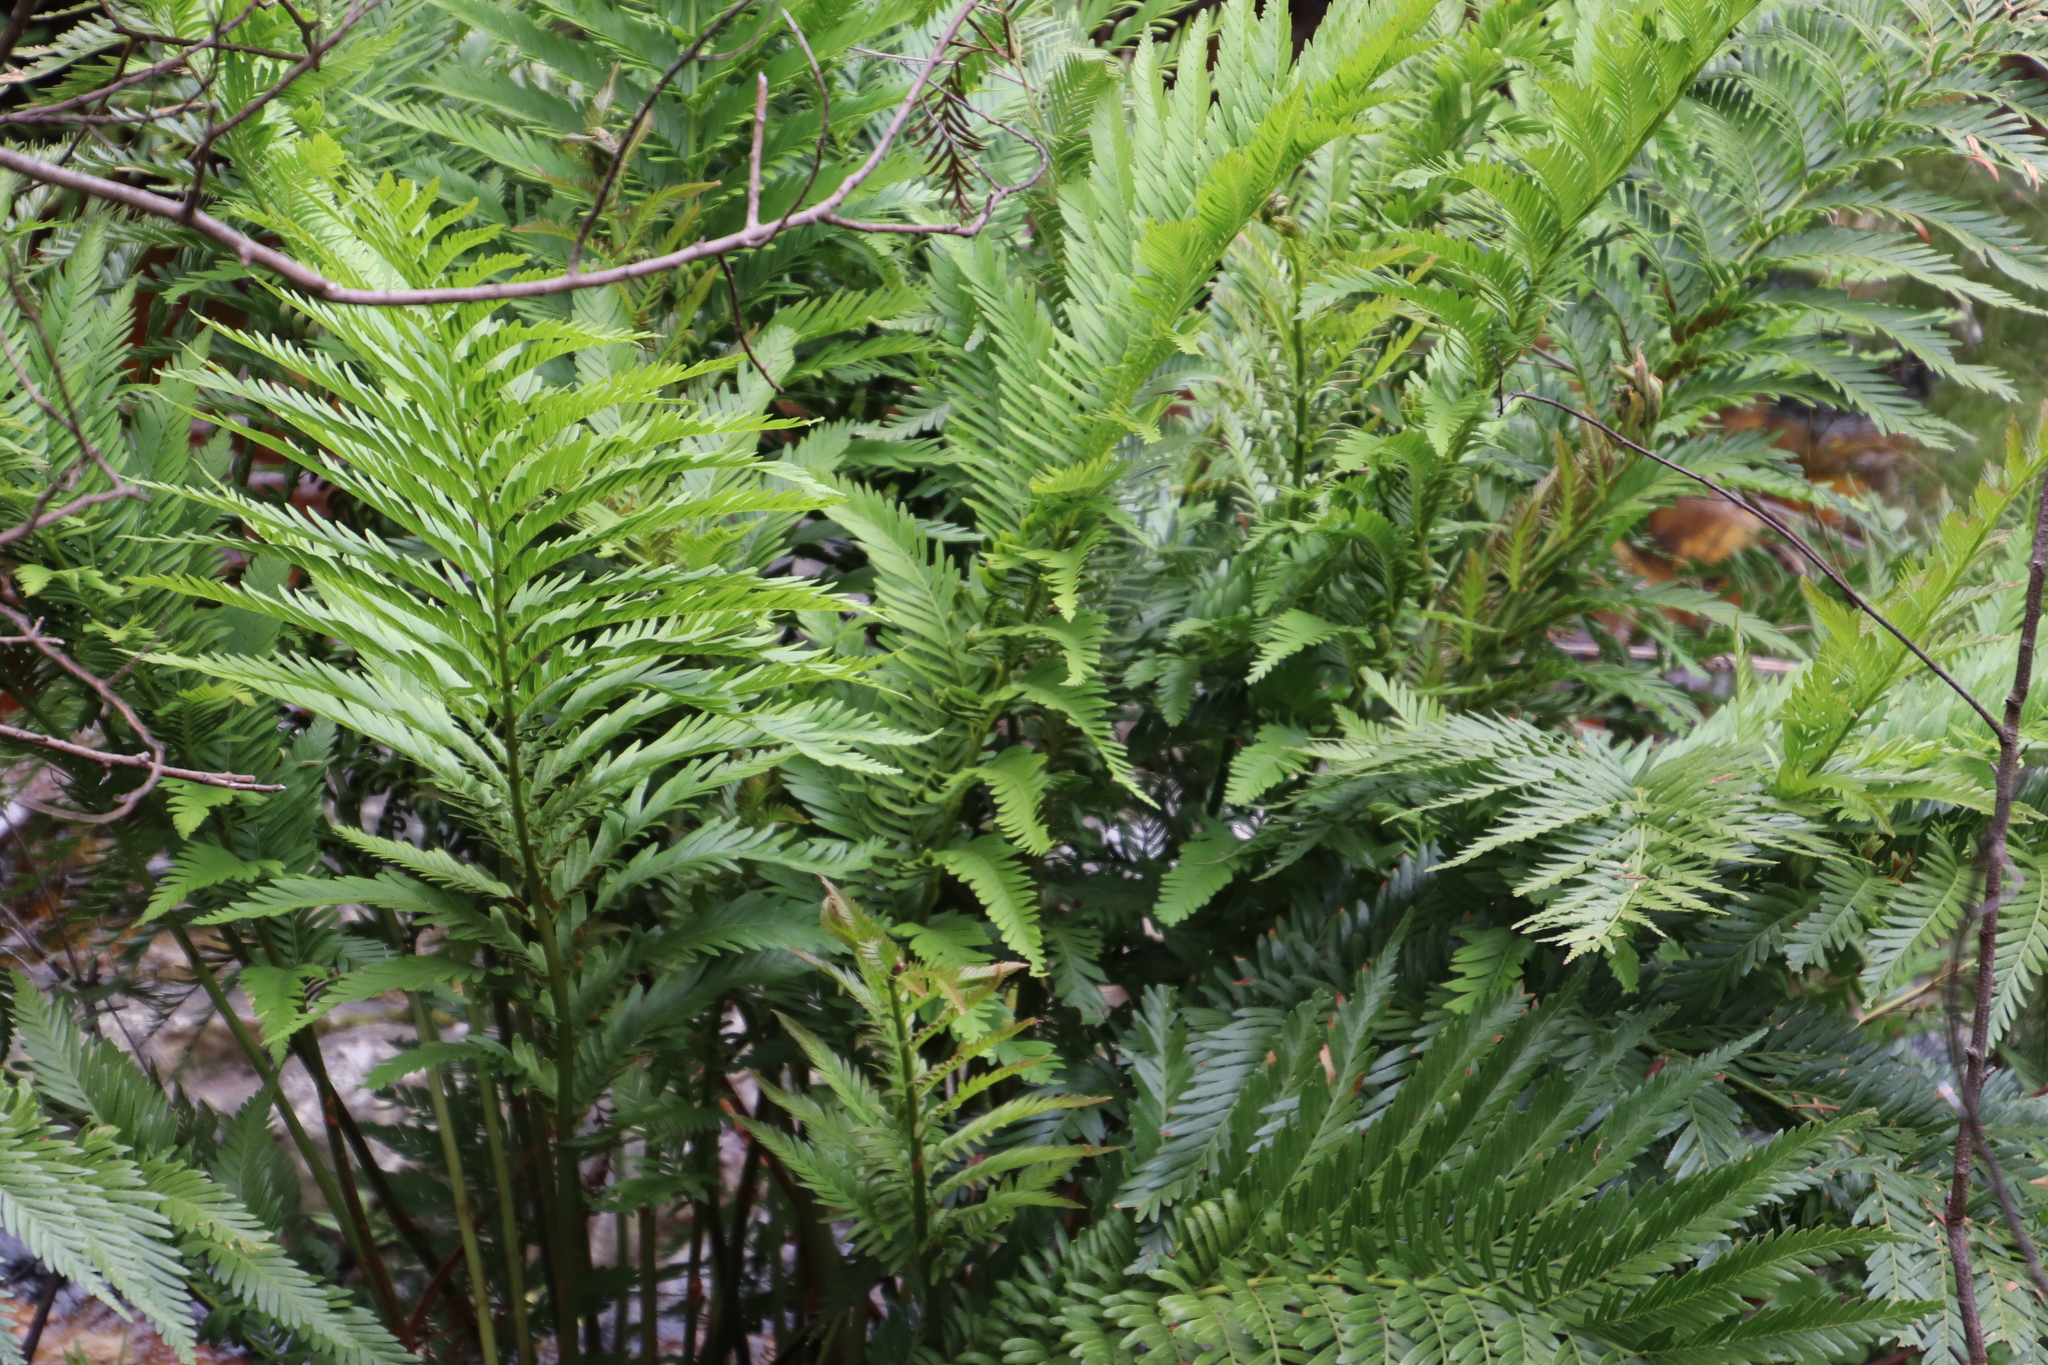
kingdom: Plantae
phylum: Tracheophyta
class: Polypodiopsida
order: Osmundales
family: Osmundaceae
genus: Todea
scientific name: Todea barbara
